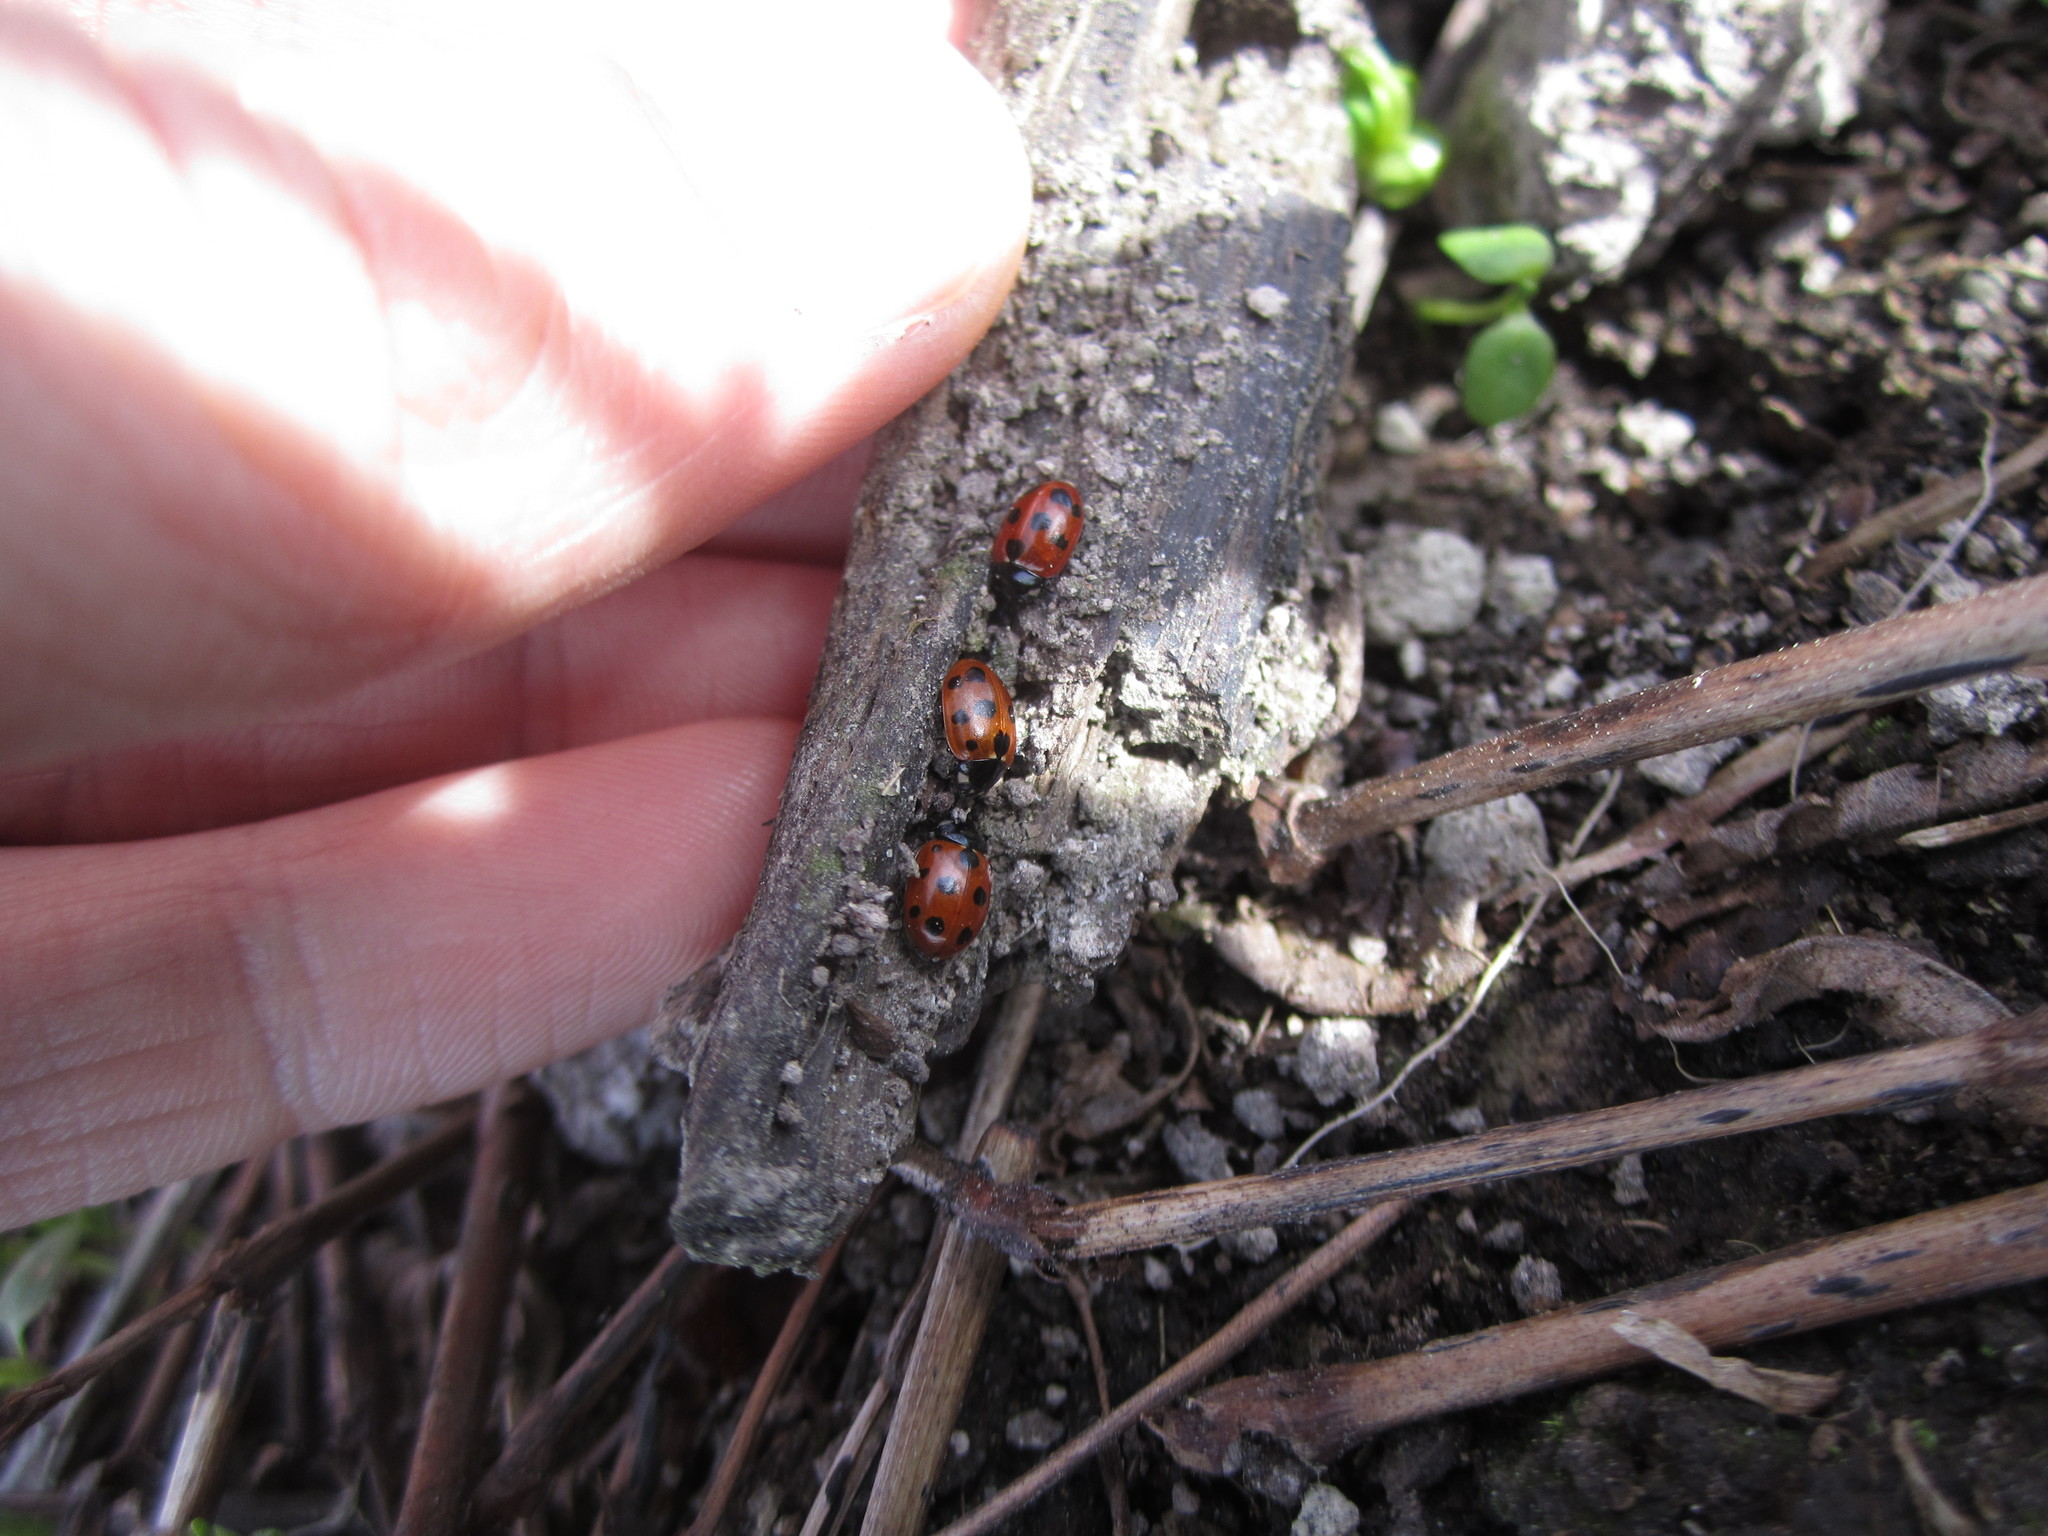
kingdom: Animalia
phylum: Arthropoda
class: Insecta
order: Coleoptera
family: Coccinellidae
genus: Coccinella
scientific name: Coccinella undecimpunctata
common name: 11-spot ladybird
